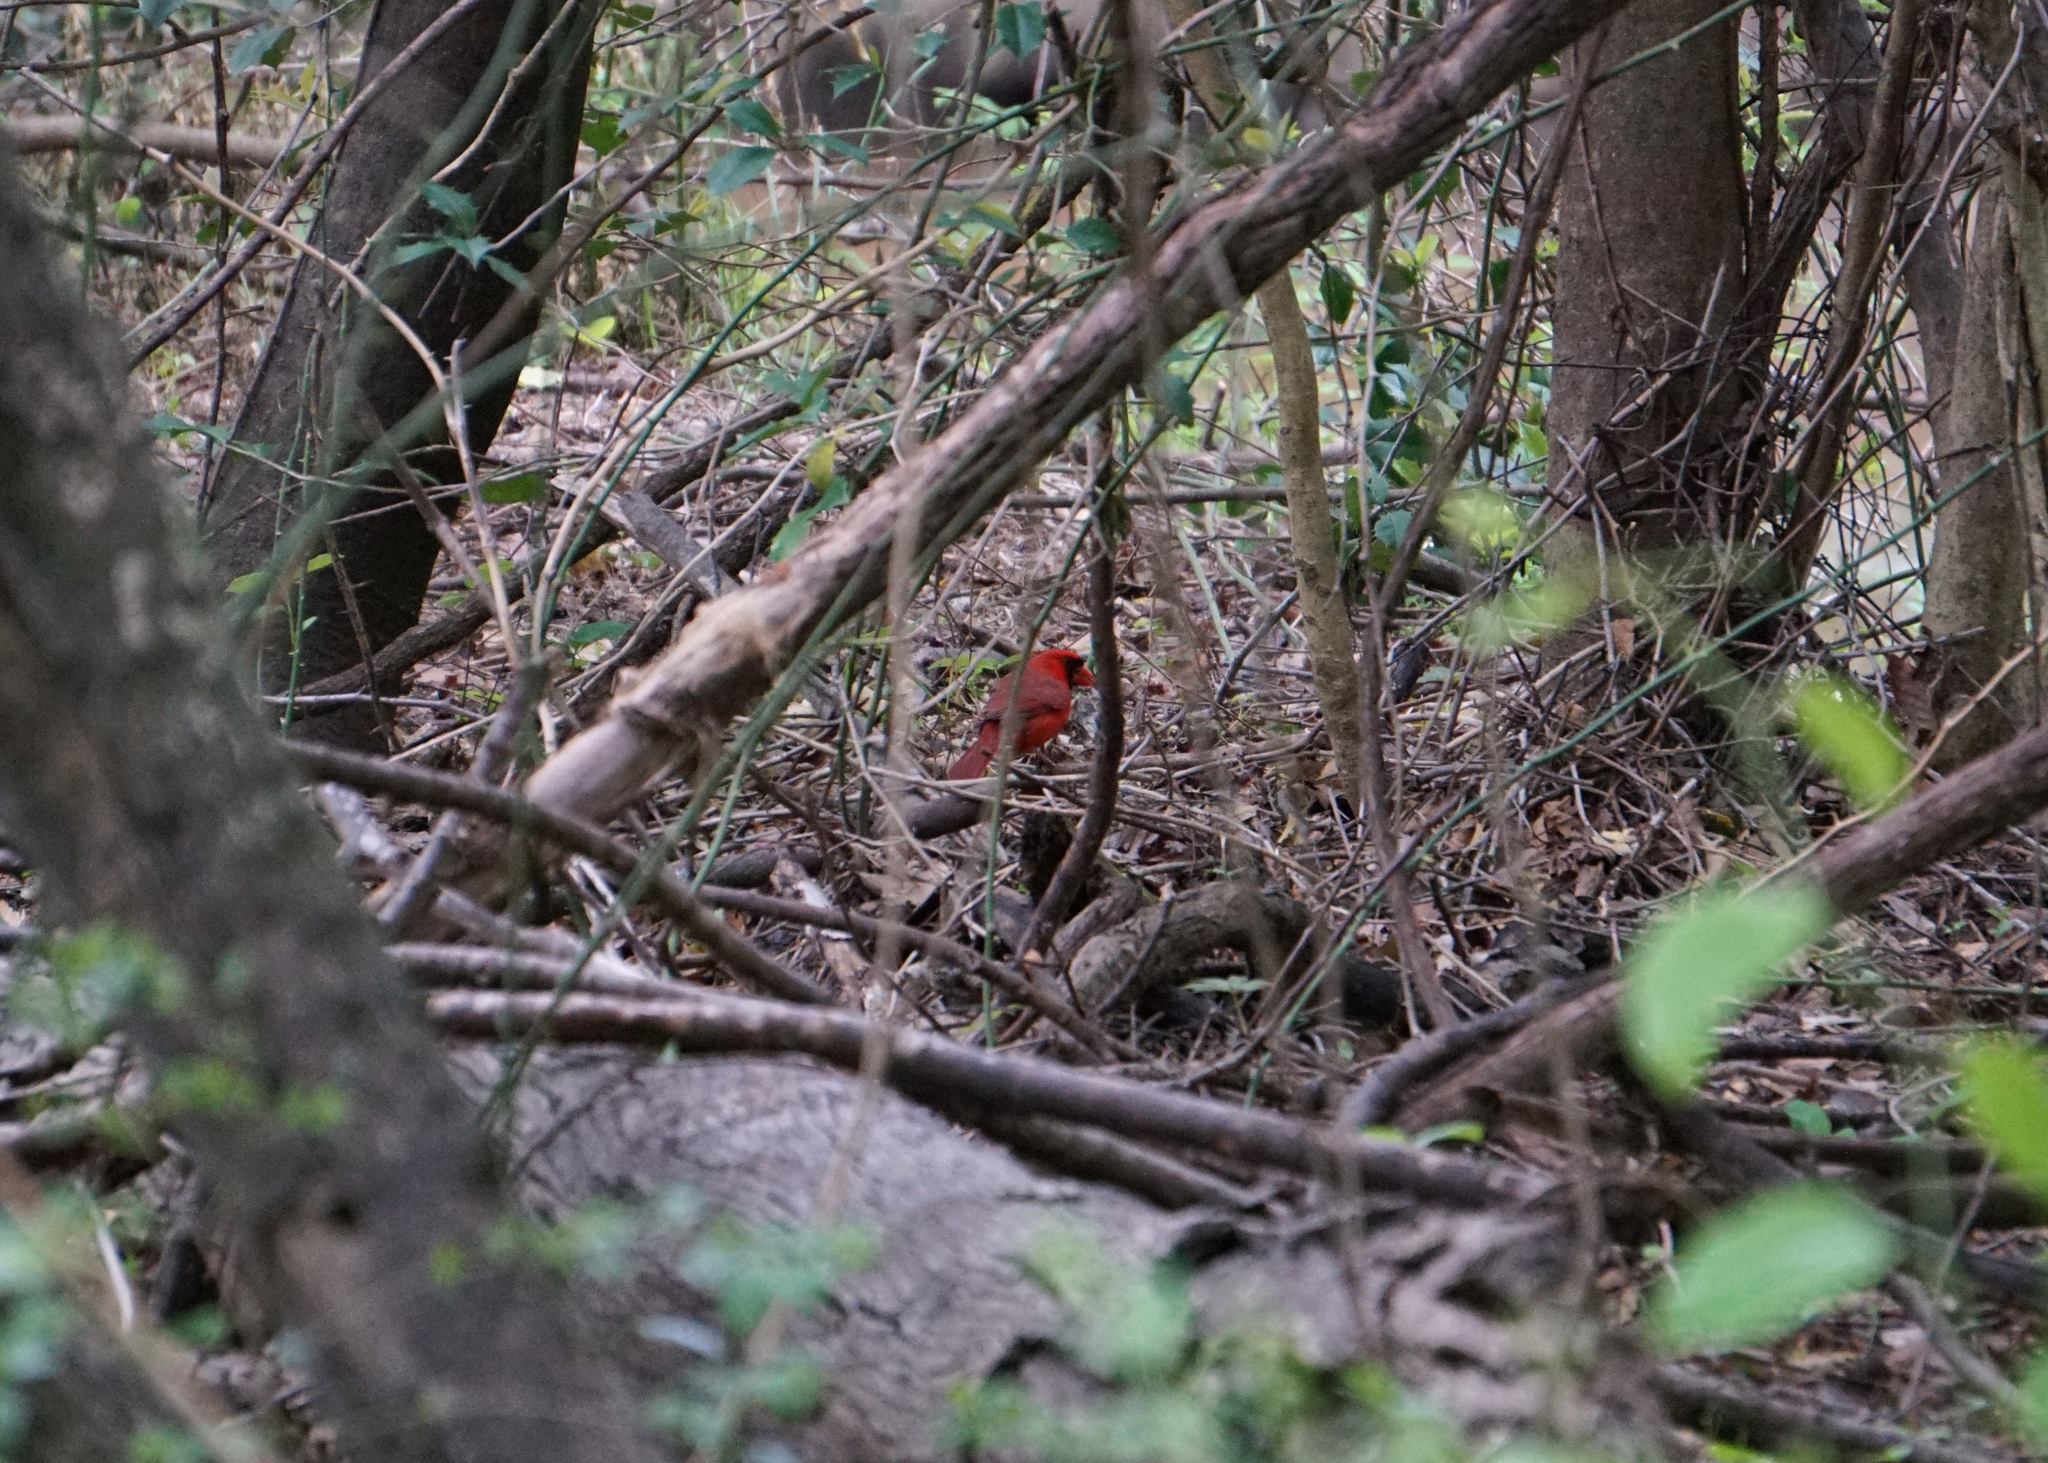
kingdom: Animalia
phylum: Chordata
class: Aves
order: Passeriformes
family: Cardinalidae
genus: Cardinalis
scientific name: Cardinalis cardinalis
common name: Northern cardinal
